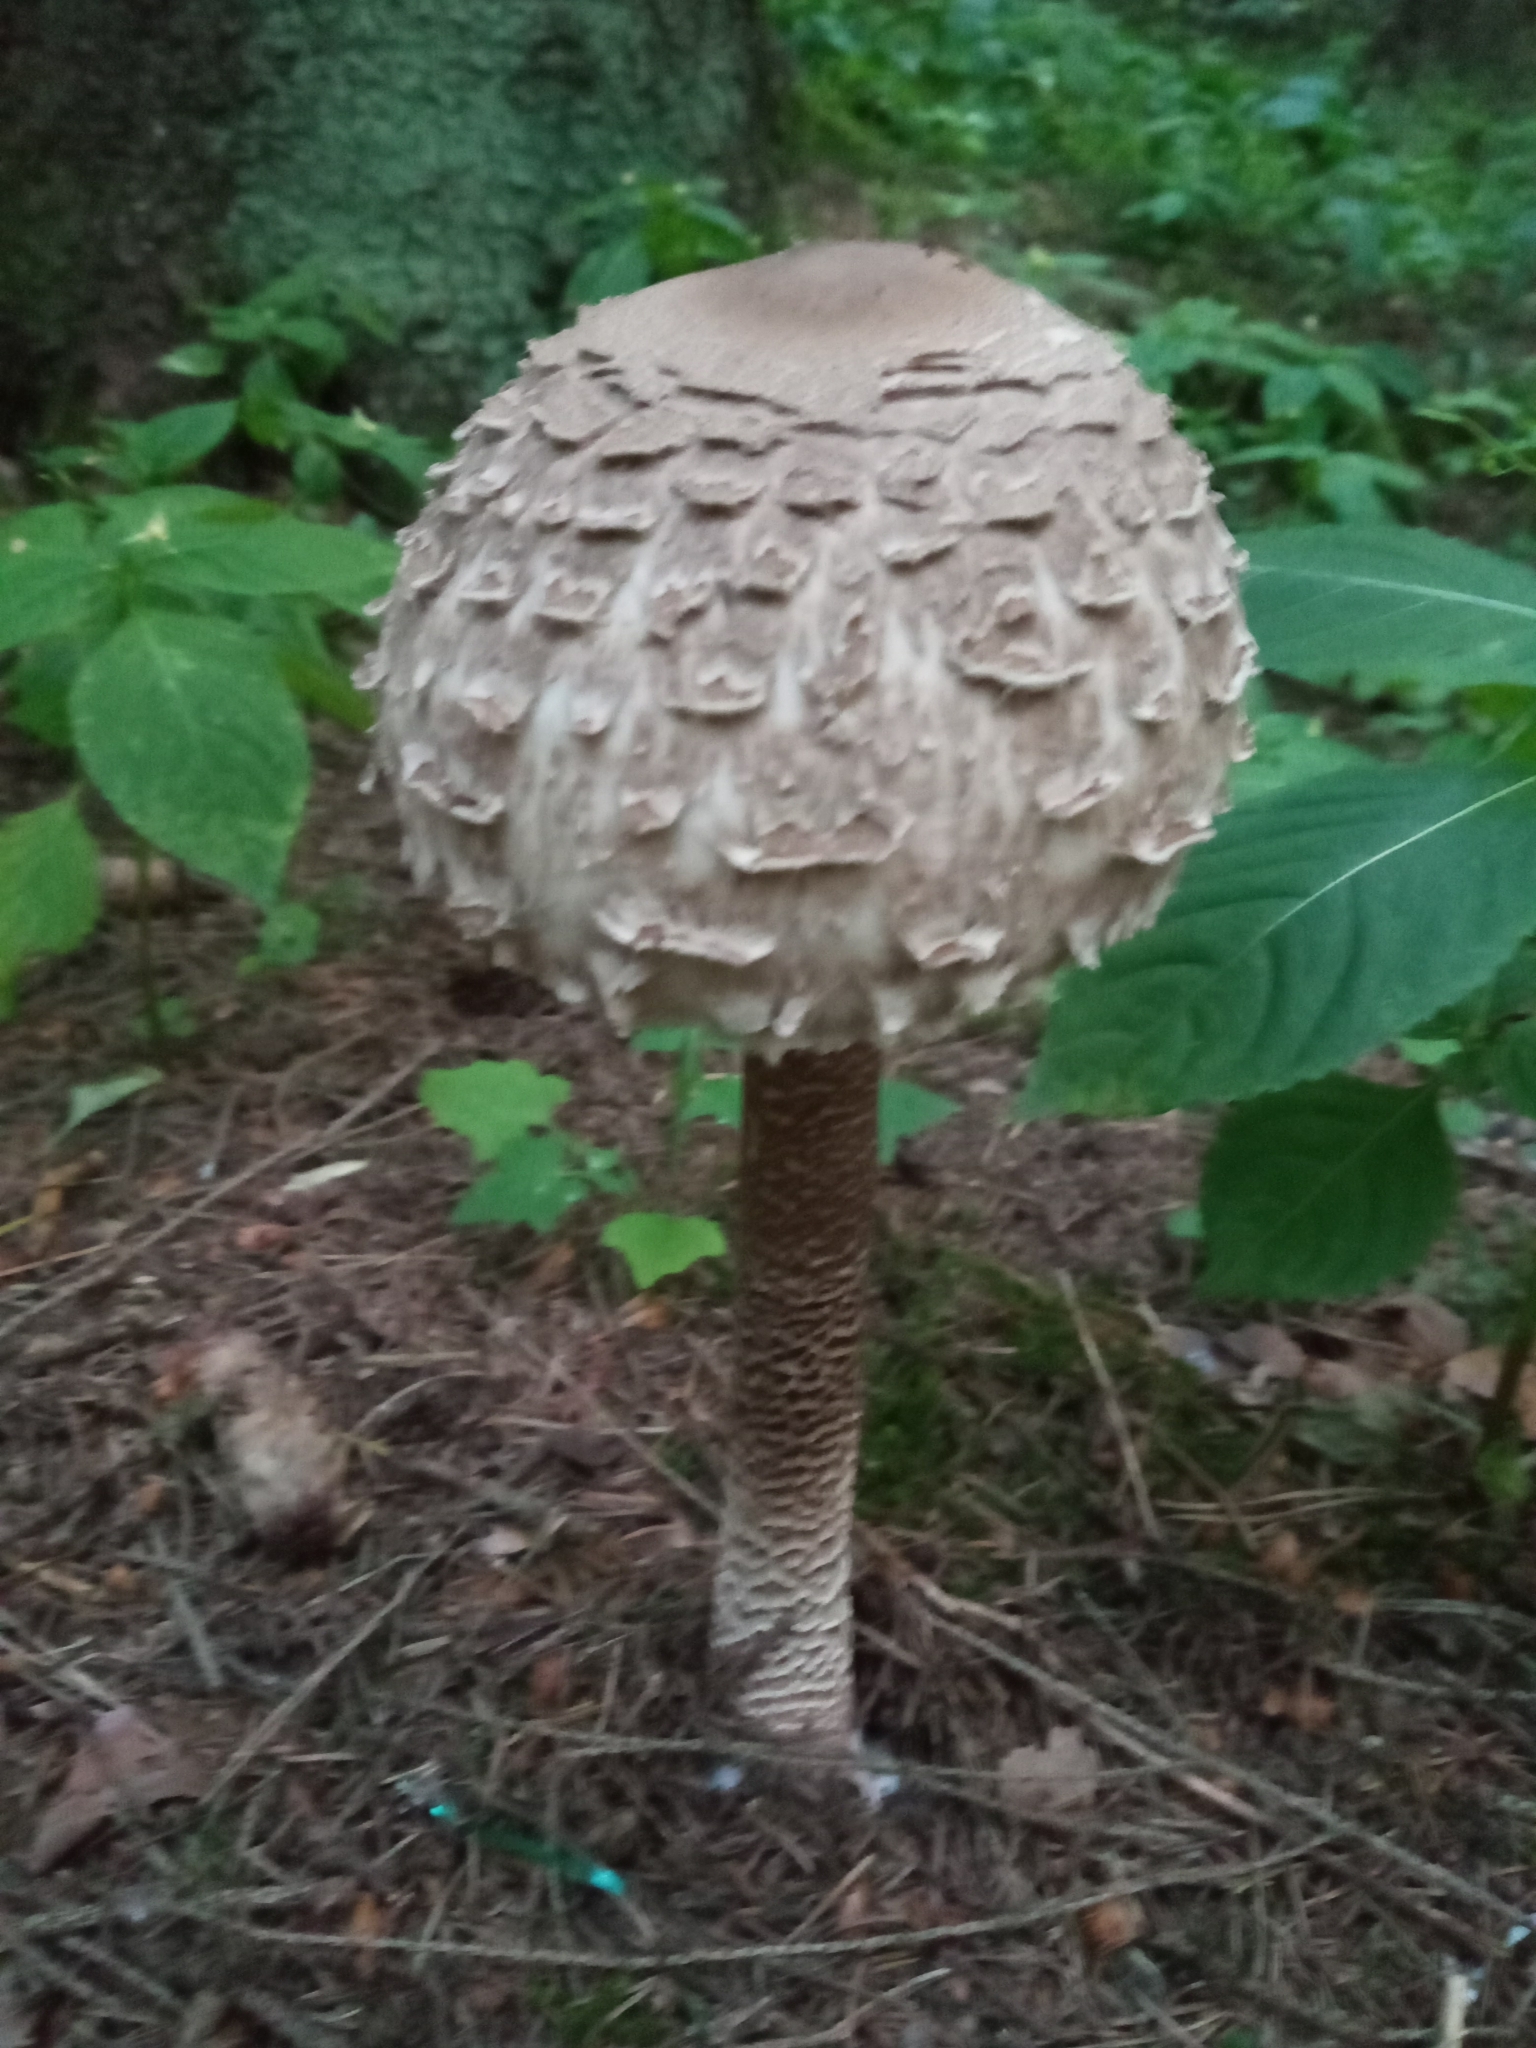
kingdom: Fungi
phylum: Basidiomycota
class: Agaricomycetes
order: Agaricales
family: Agaricaceae
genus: Macrolepiota
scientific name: Macrolepiota procera
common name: Parasol
